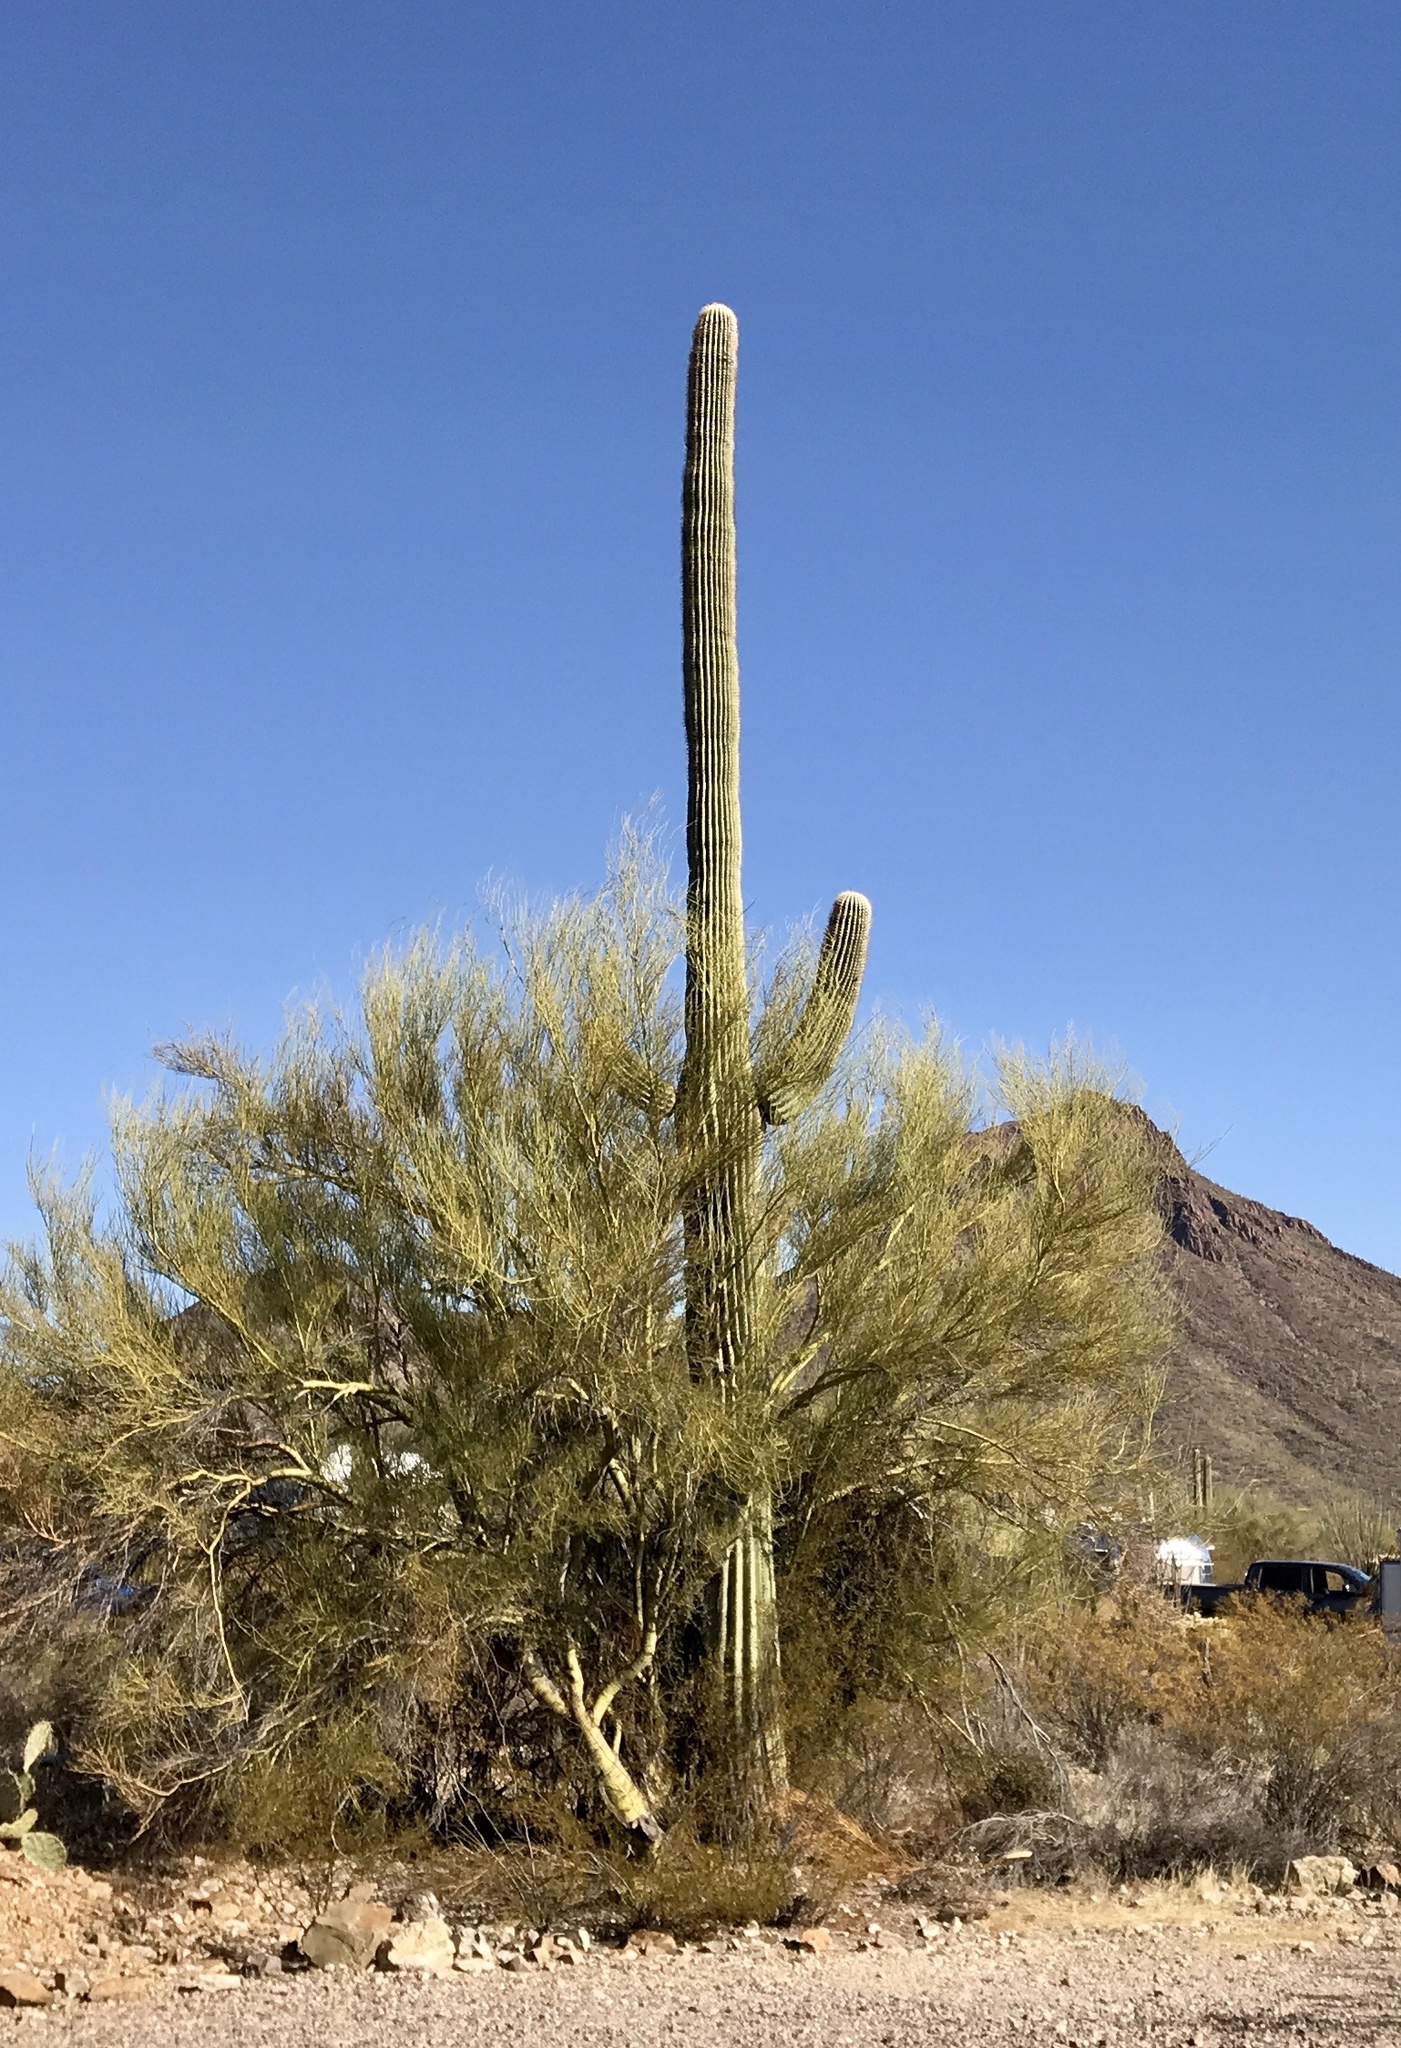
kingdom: Plantae
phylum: Tracheophyta
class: Magnoliopsida
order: Caryophyllales
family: Cactaceae
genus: Carnegiea
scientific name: Carnegiea gigantea
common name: Saguaro
